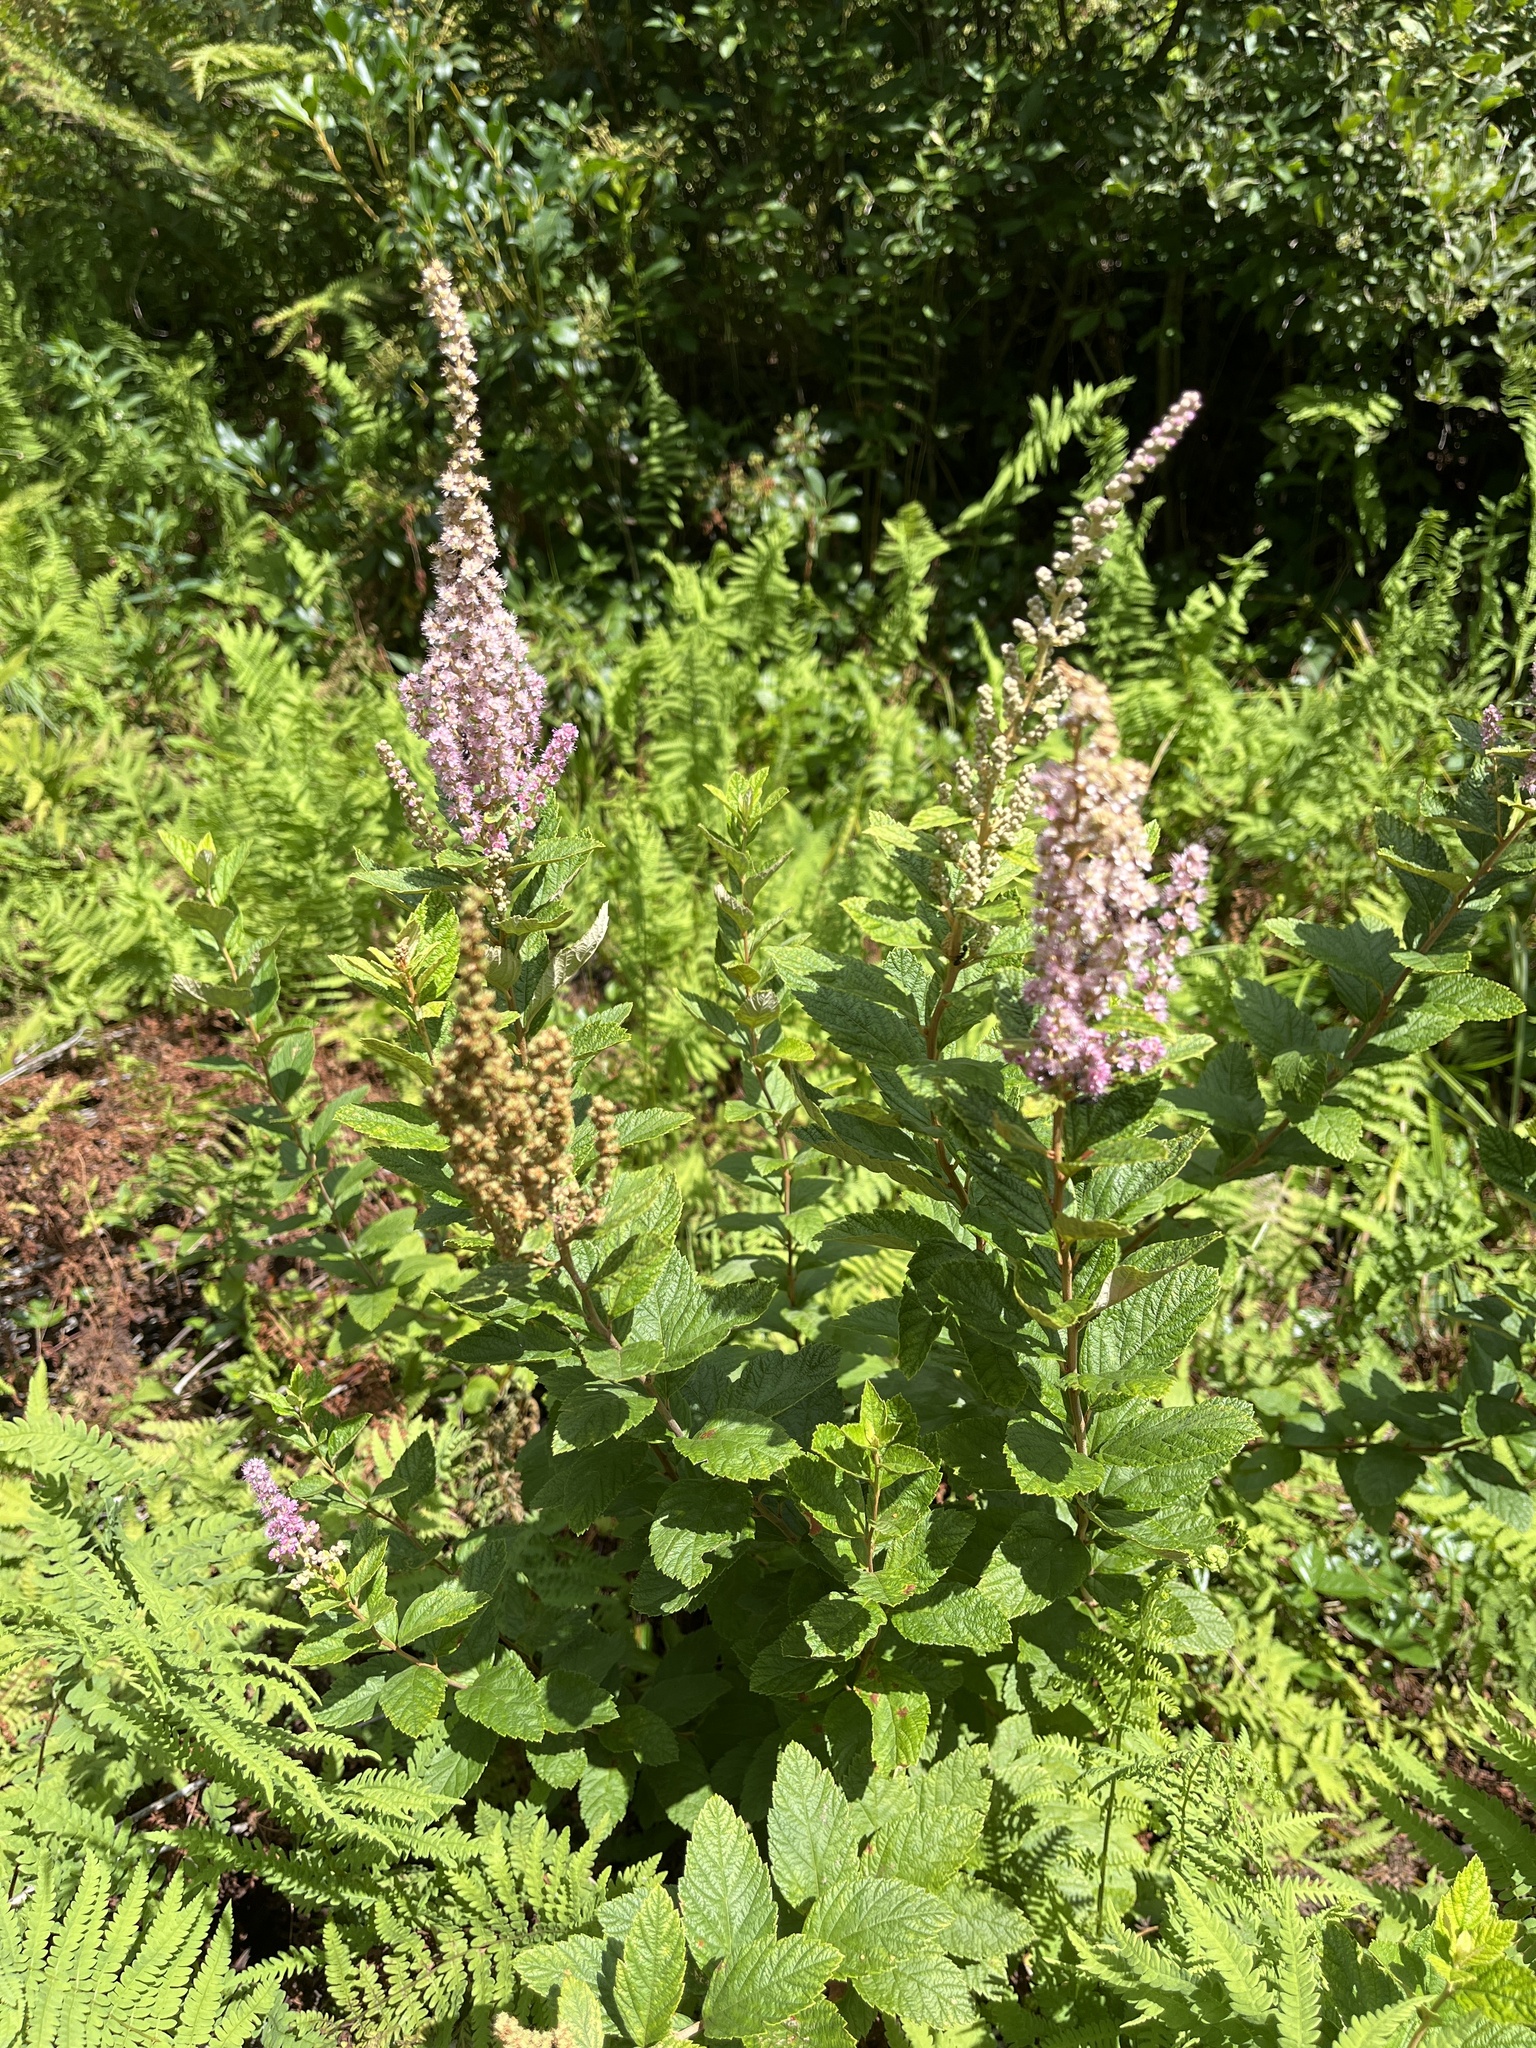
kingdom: Plantae
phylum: Tracheophyta
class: Magnoliopsida
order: Rosales
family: Rosaceae
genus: Spiraea
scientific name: Spiraea tomentosa
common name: Hardhack
